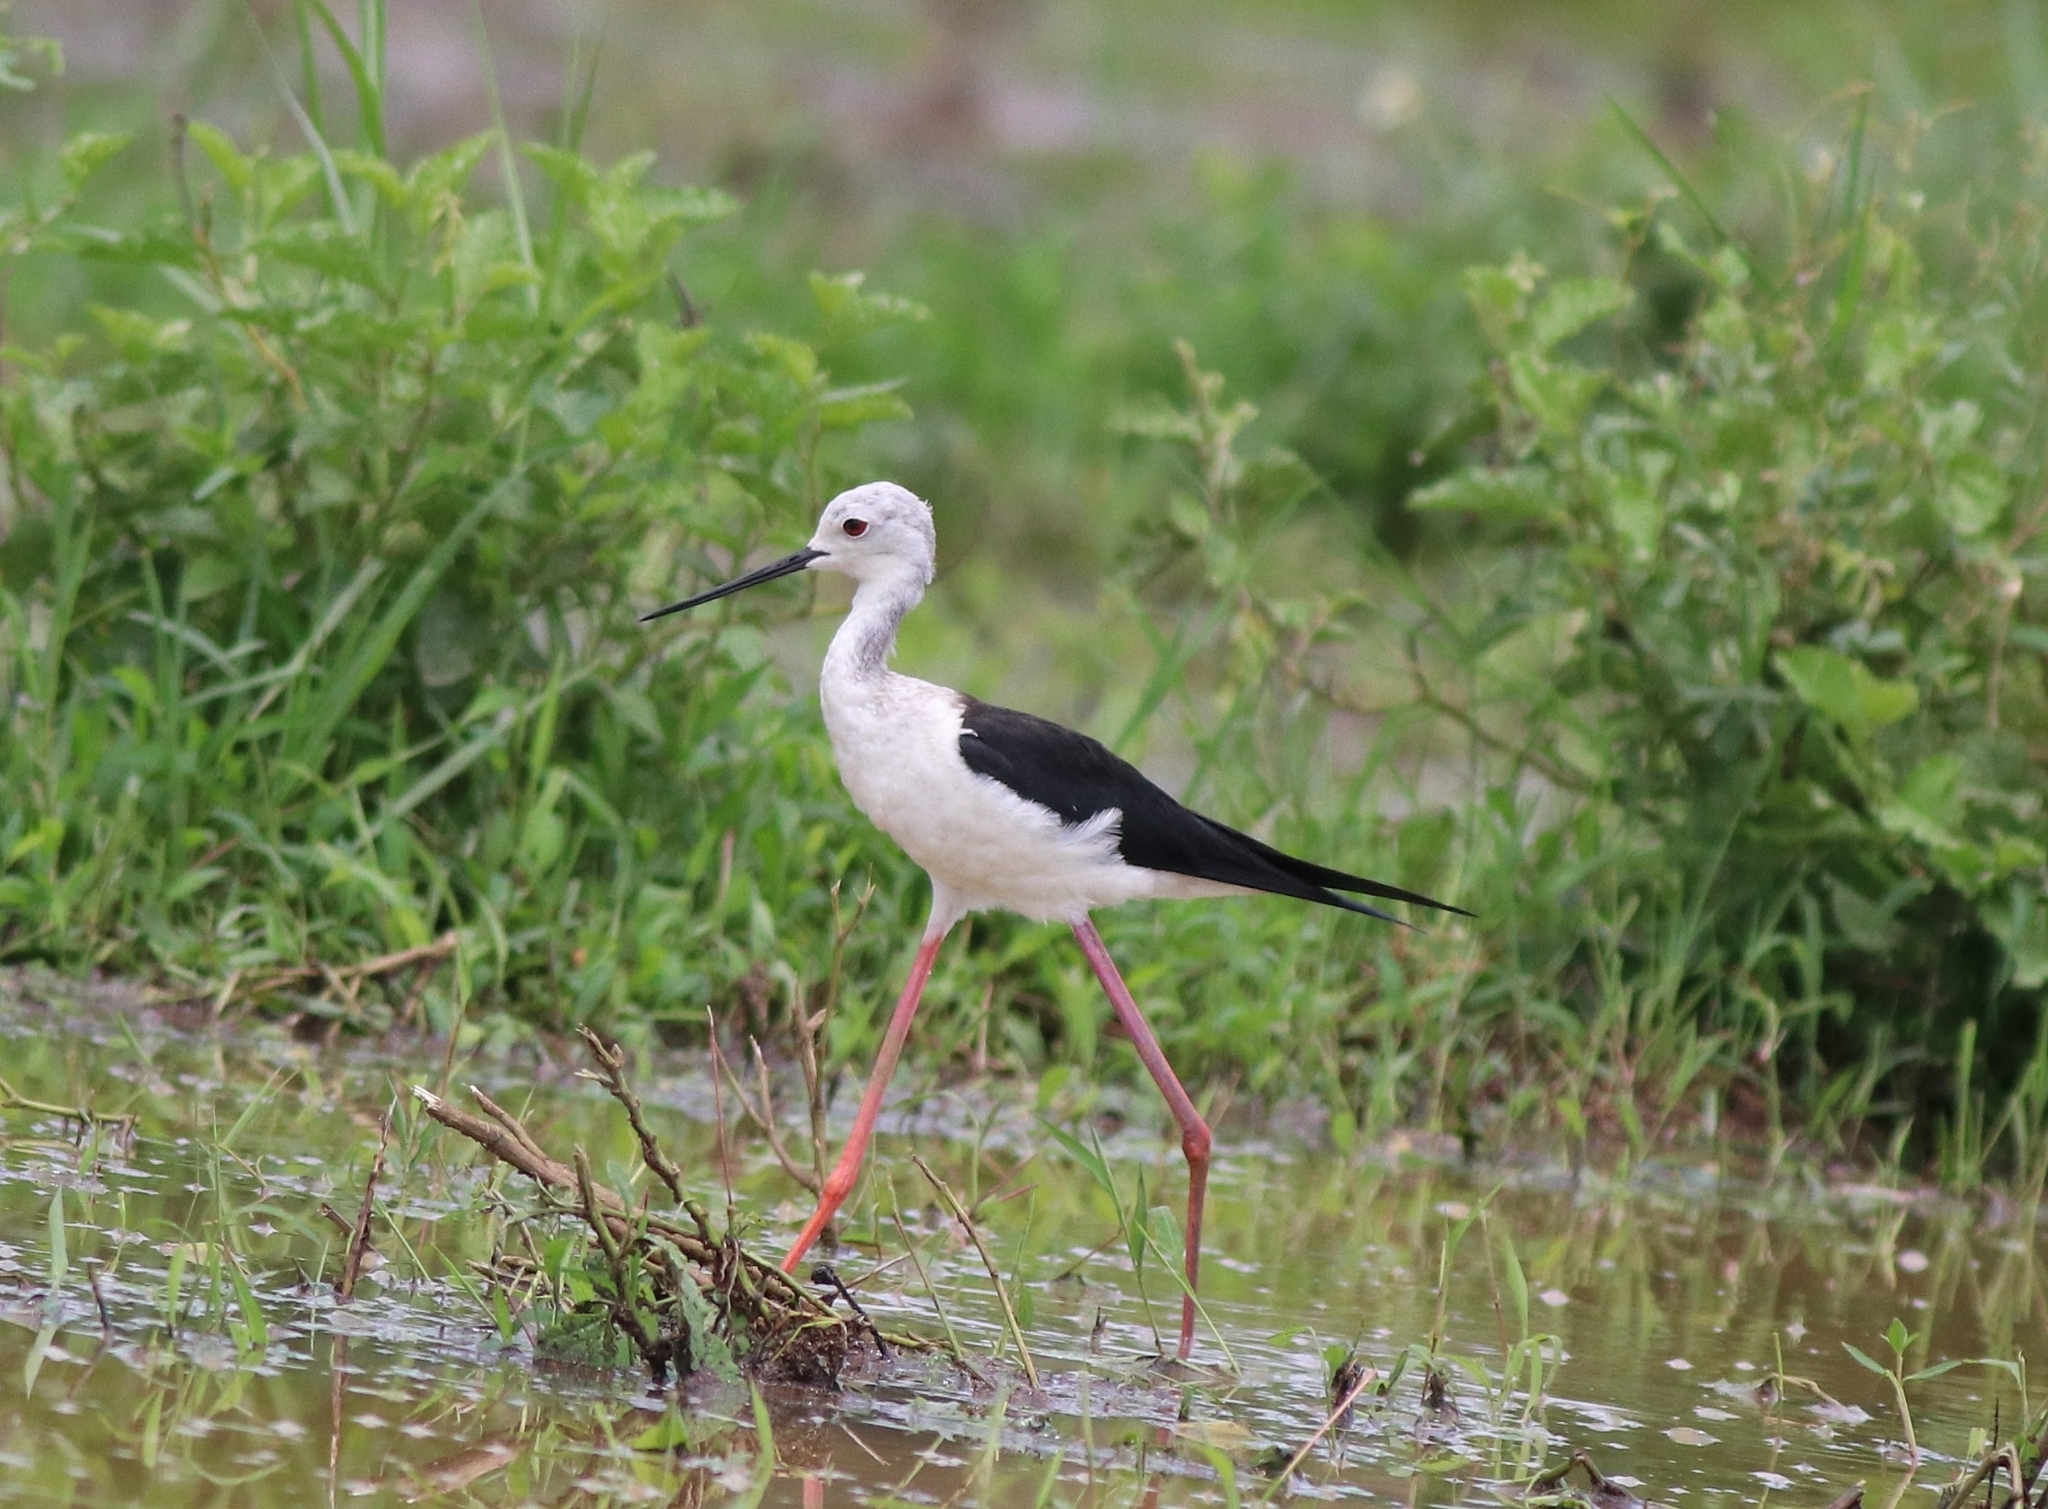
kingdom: Animalia
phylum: Chordata
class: Aves
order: Charadriiformes
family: Recurvirostridae
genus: Himantopus
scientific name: Himantopus himantopus
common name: Black-winged stilt
